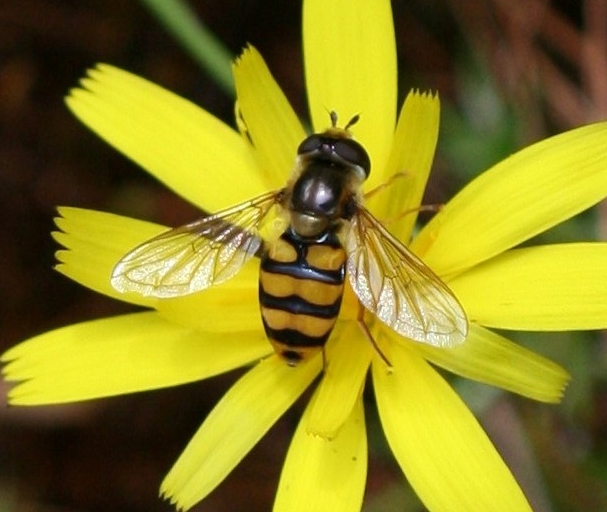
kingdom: Animalia
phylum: Arthropoda
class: Insecta
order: Diptera
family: Syrphidae
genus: Eupeodes
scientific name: Eupeodes latifasciatus
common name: Variable aphideater
